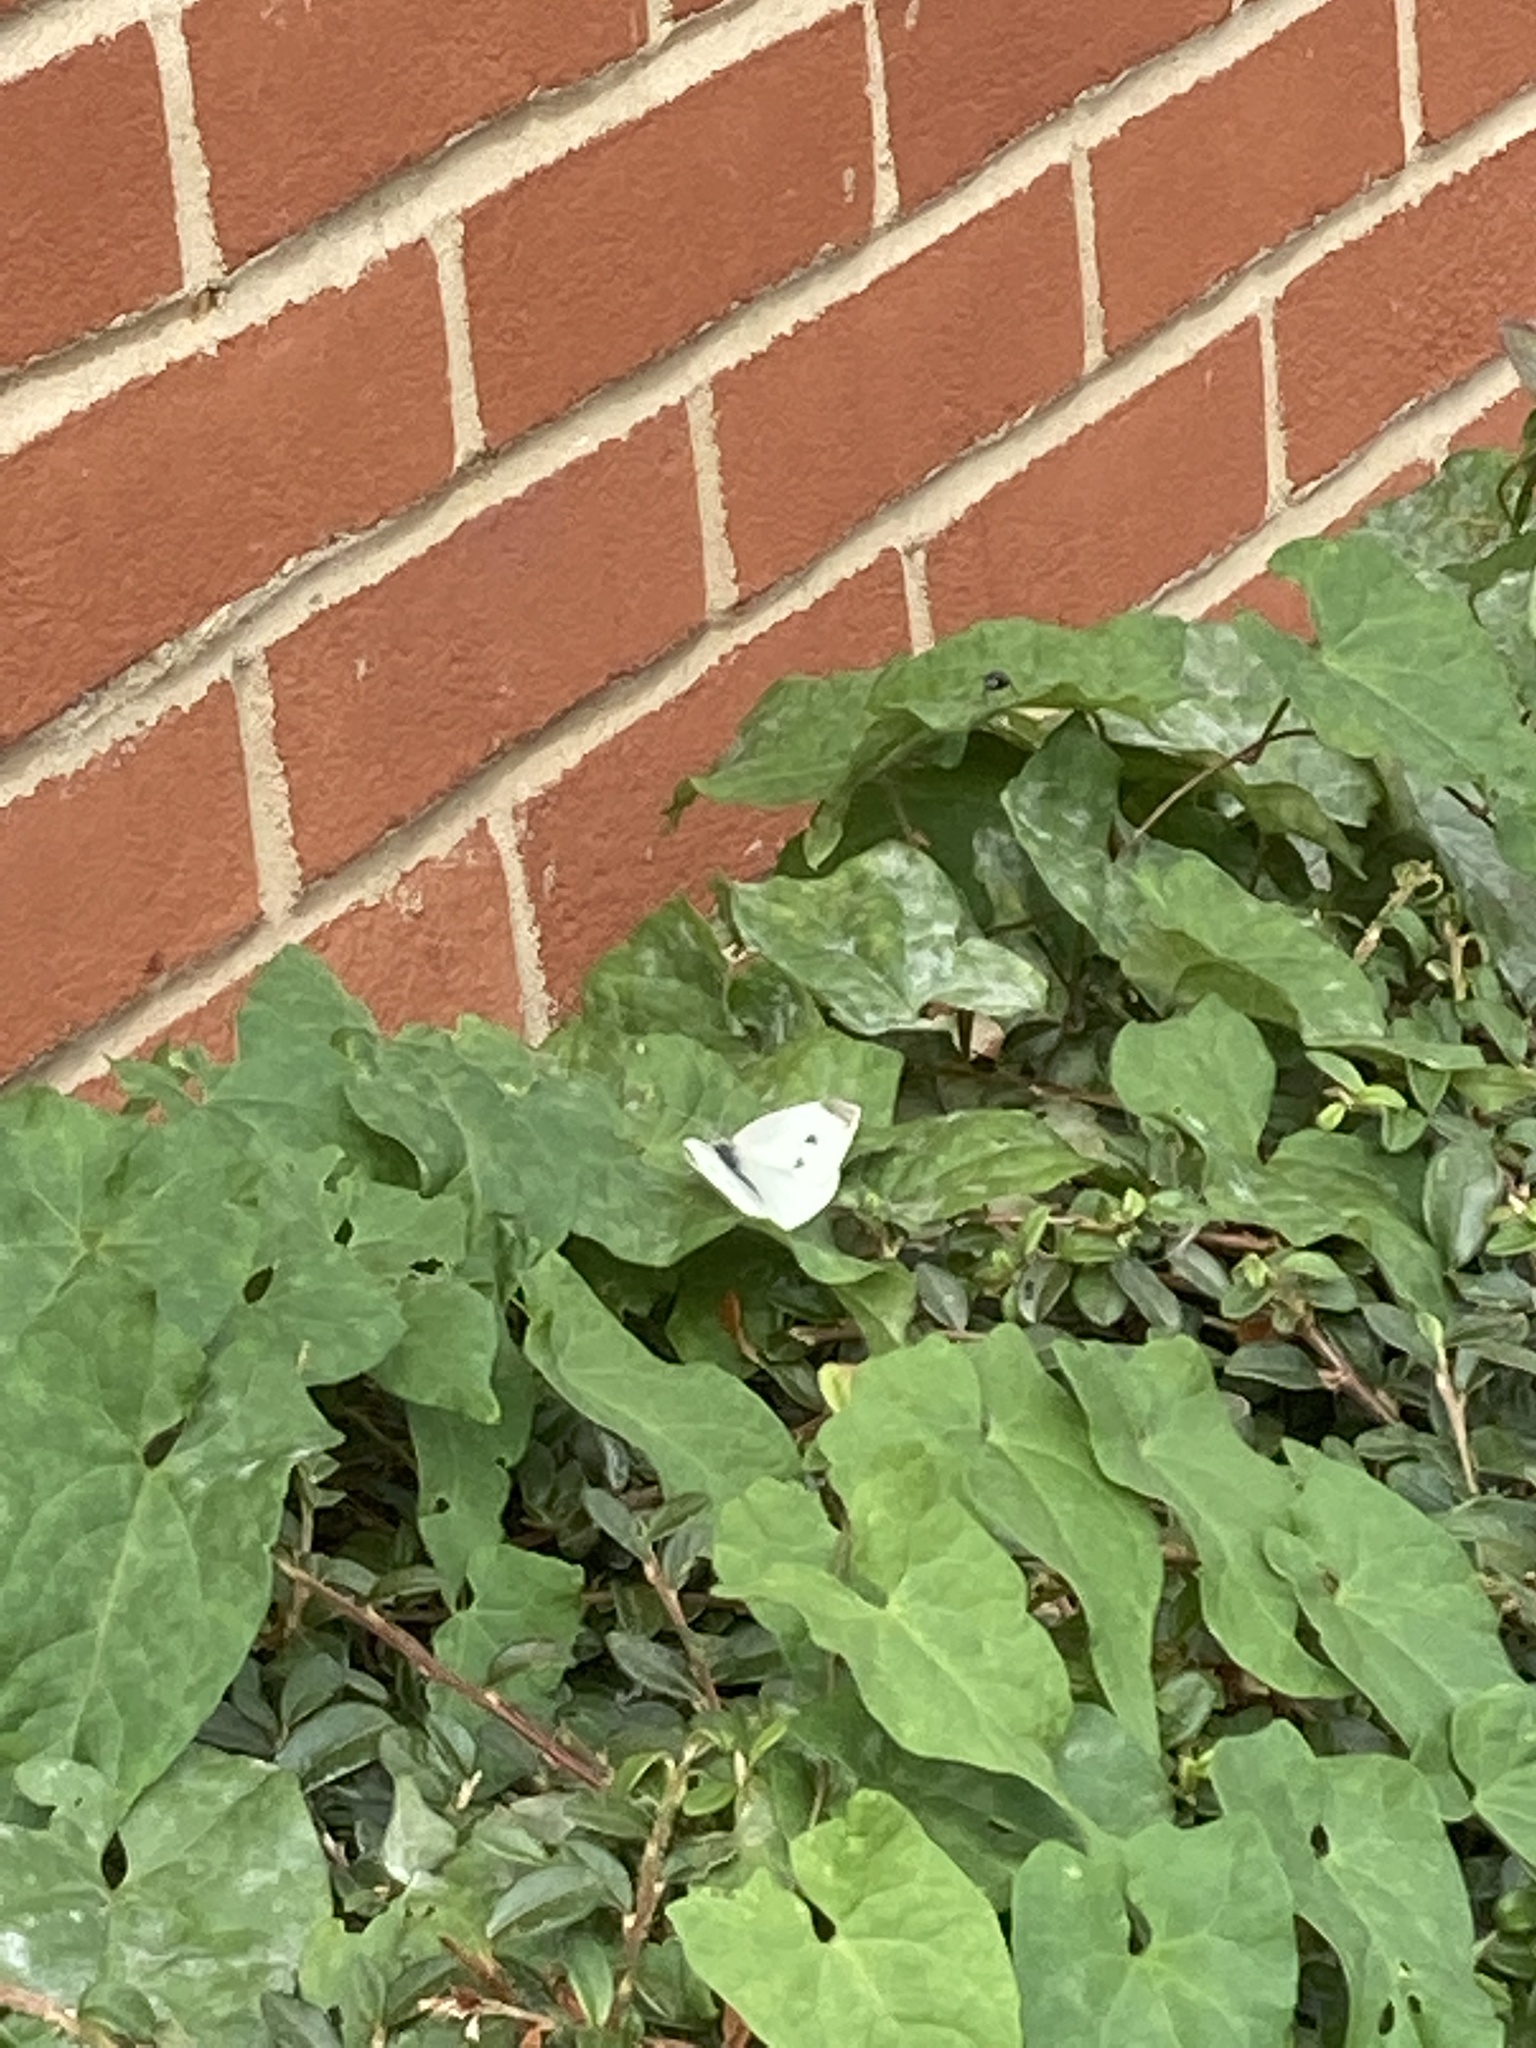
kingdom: Animalia
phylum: Arthropoda
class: Insecta
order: Lepidoptera
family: Pieridae
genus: Pieris
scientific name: Pieris rapae
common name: Small white
